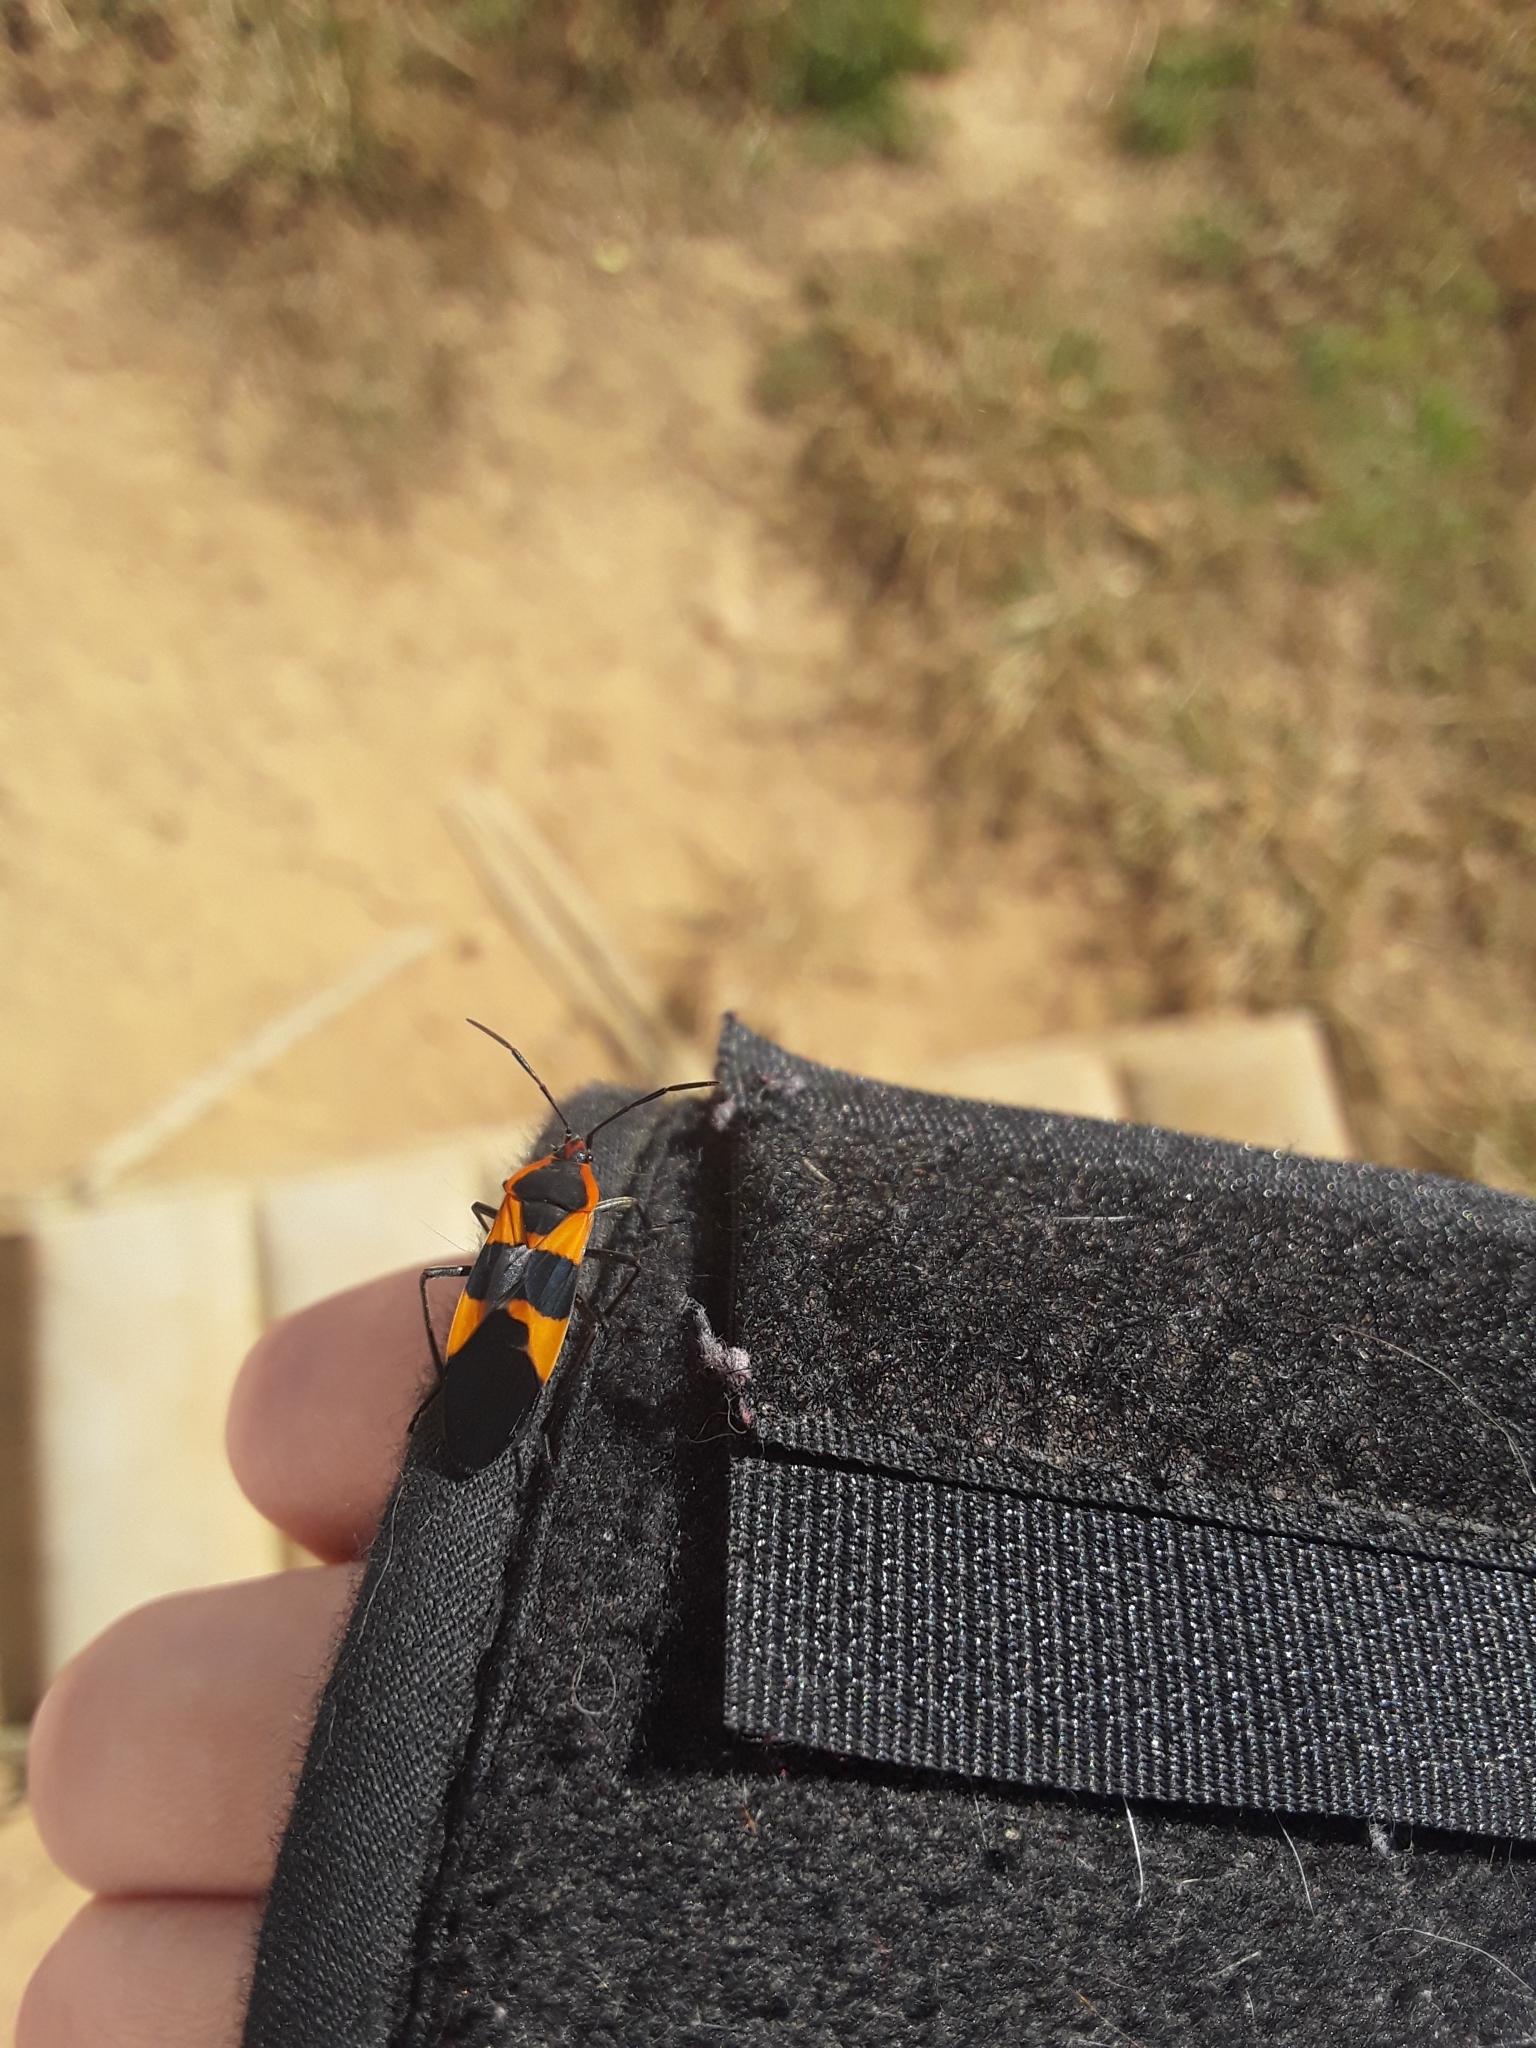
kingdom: Animalia
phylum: Arthropoda
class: Insecta
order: Hemiptera
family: Lygaeidae
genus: Oncopeltus
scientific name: Oncopeltus fasciatus
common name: Large milkweed bug
